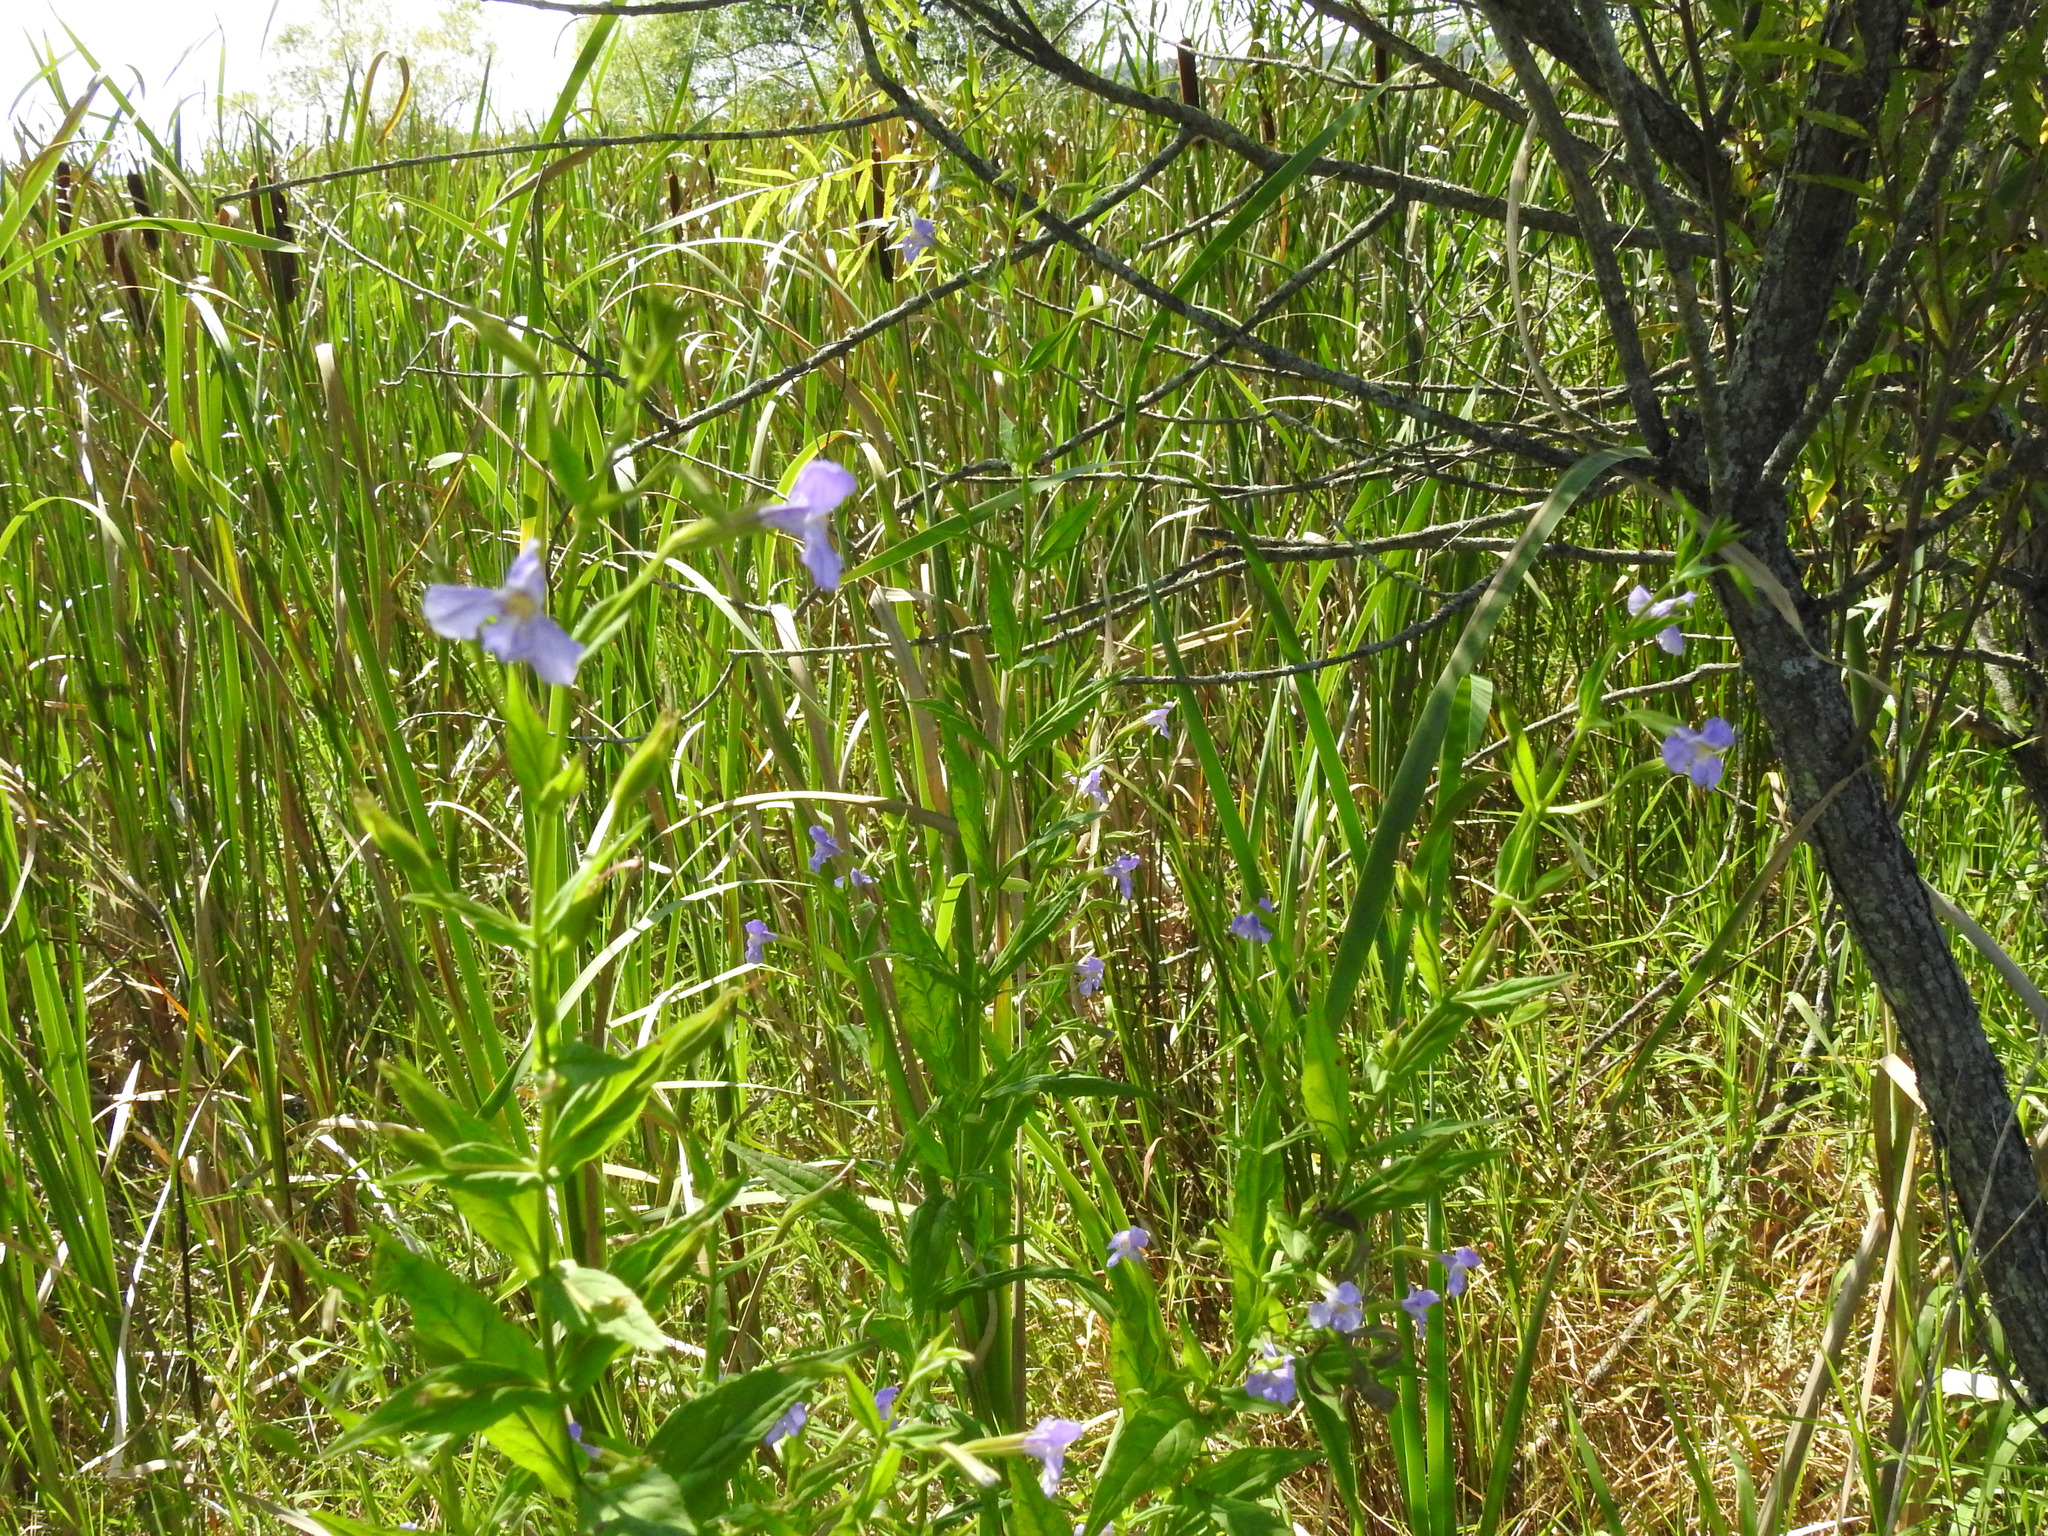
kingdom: Plantae
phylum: Tracheophyta
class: Magnoliopsida
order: Lamiales
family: Phrymaceae
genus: Mimulus
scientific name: Mimulus ringens
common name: Allegheny monkeyflower
